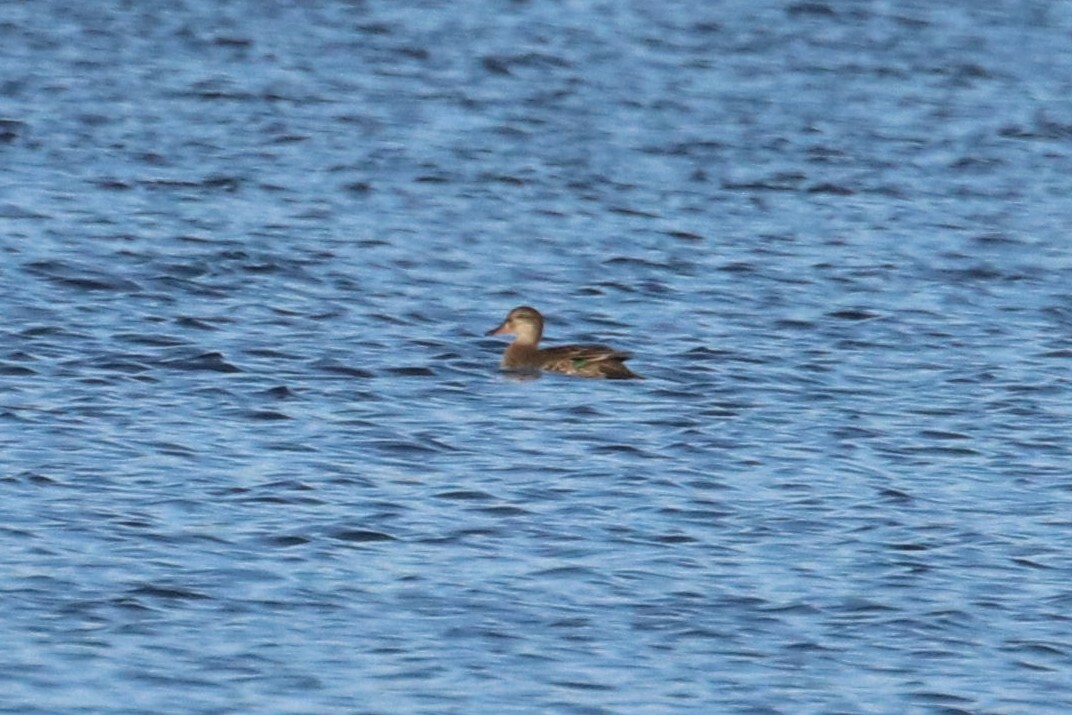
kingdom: Animalia
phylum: Chordata
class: Aves
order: Anseriformes
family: Anatidae
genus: Anas
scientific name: Anas crecca
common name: Eurasian teal
